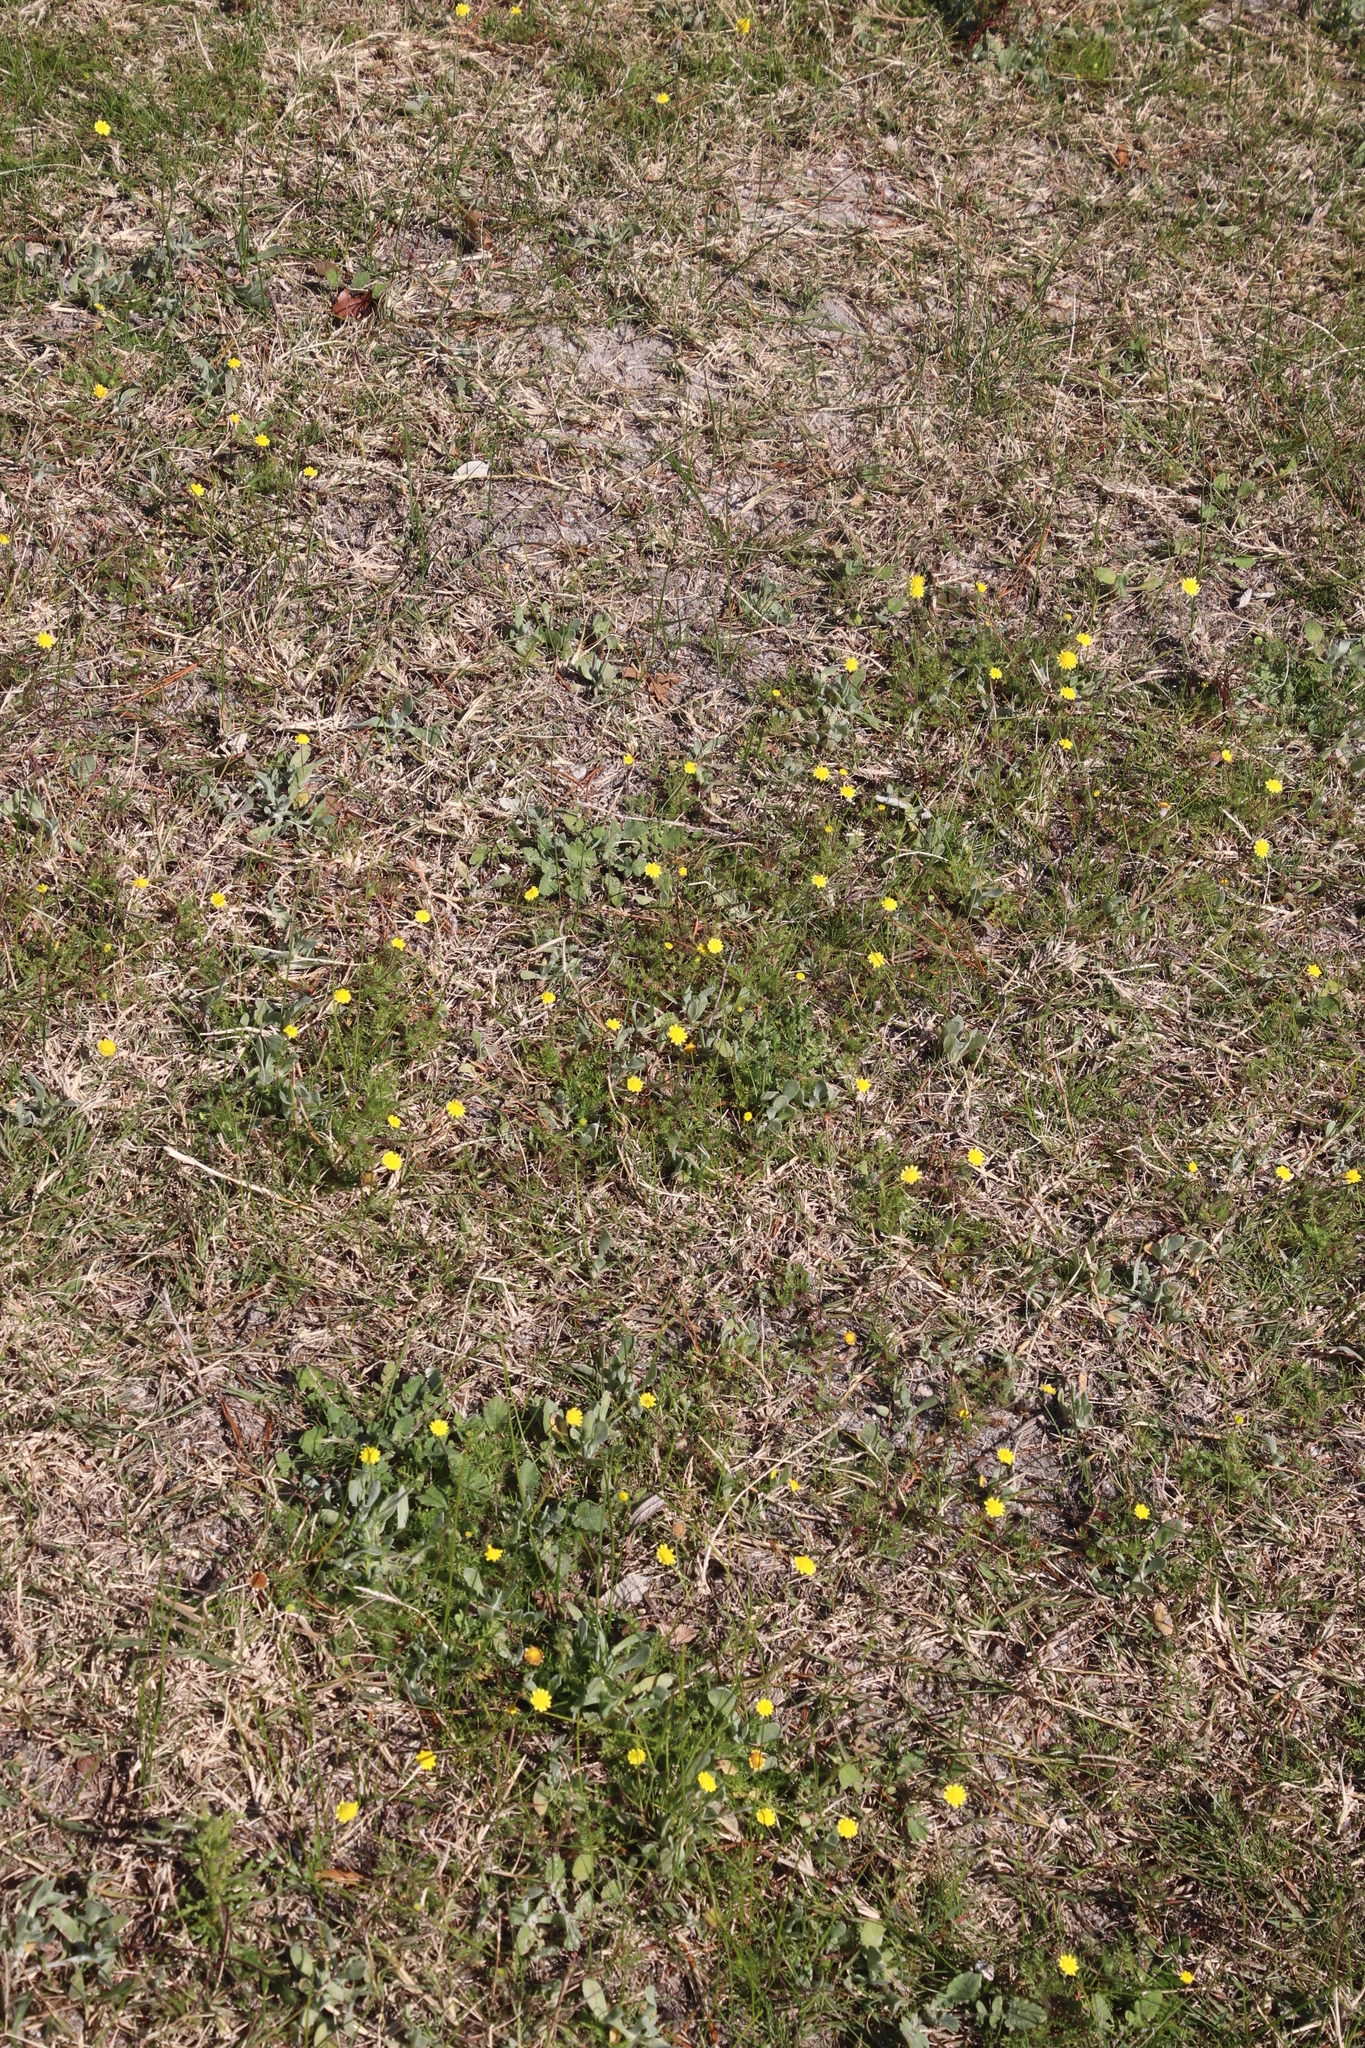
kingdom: Plantae
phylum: Tracheophyta
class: Magnoliopsida
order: Asterales
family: Asteraceae
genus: Cotula
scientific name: Cotula pruinosa
